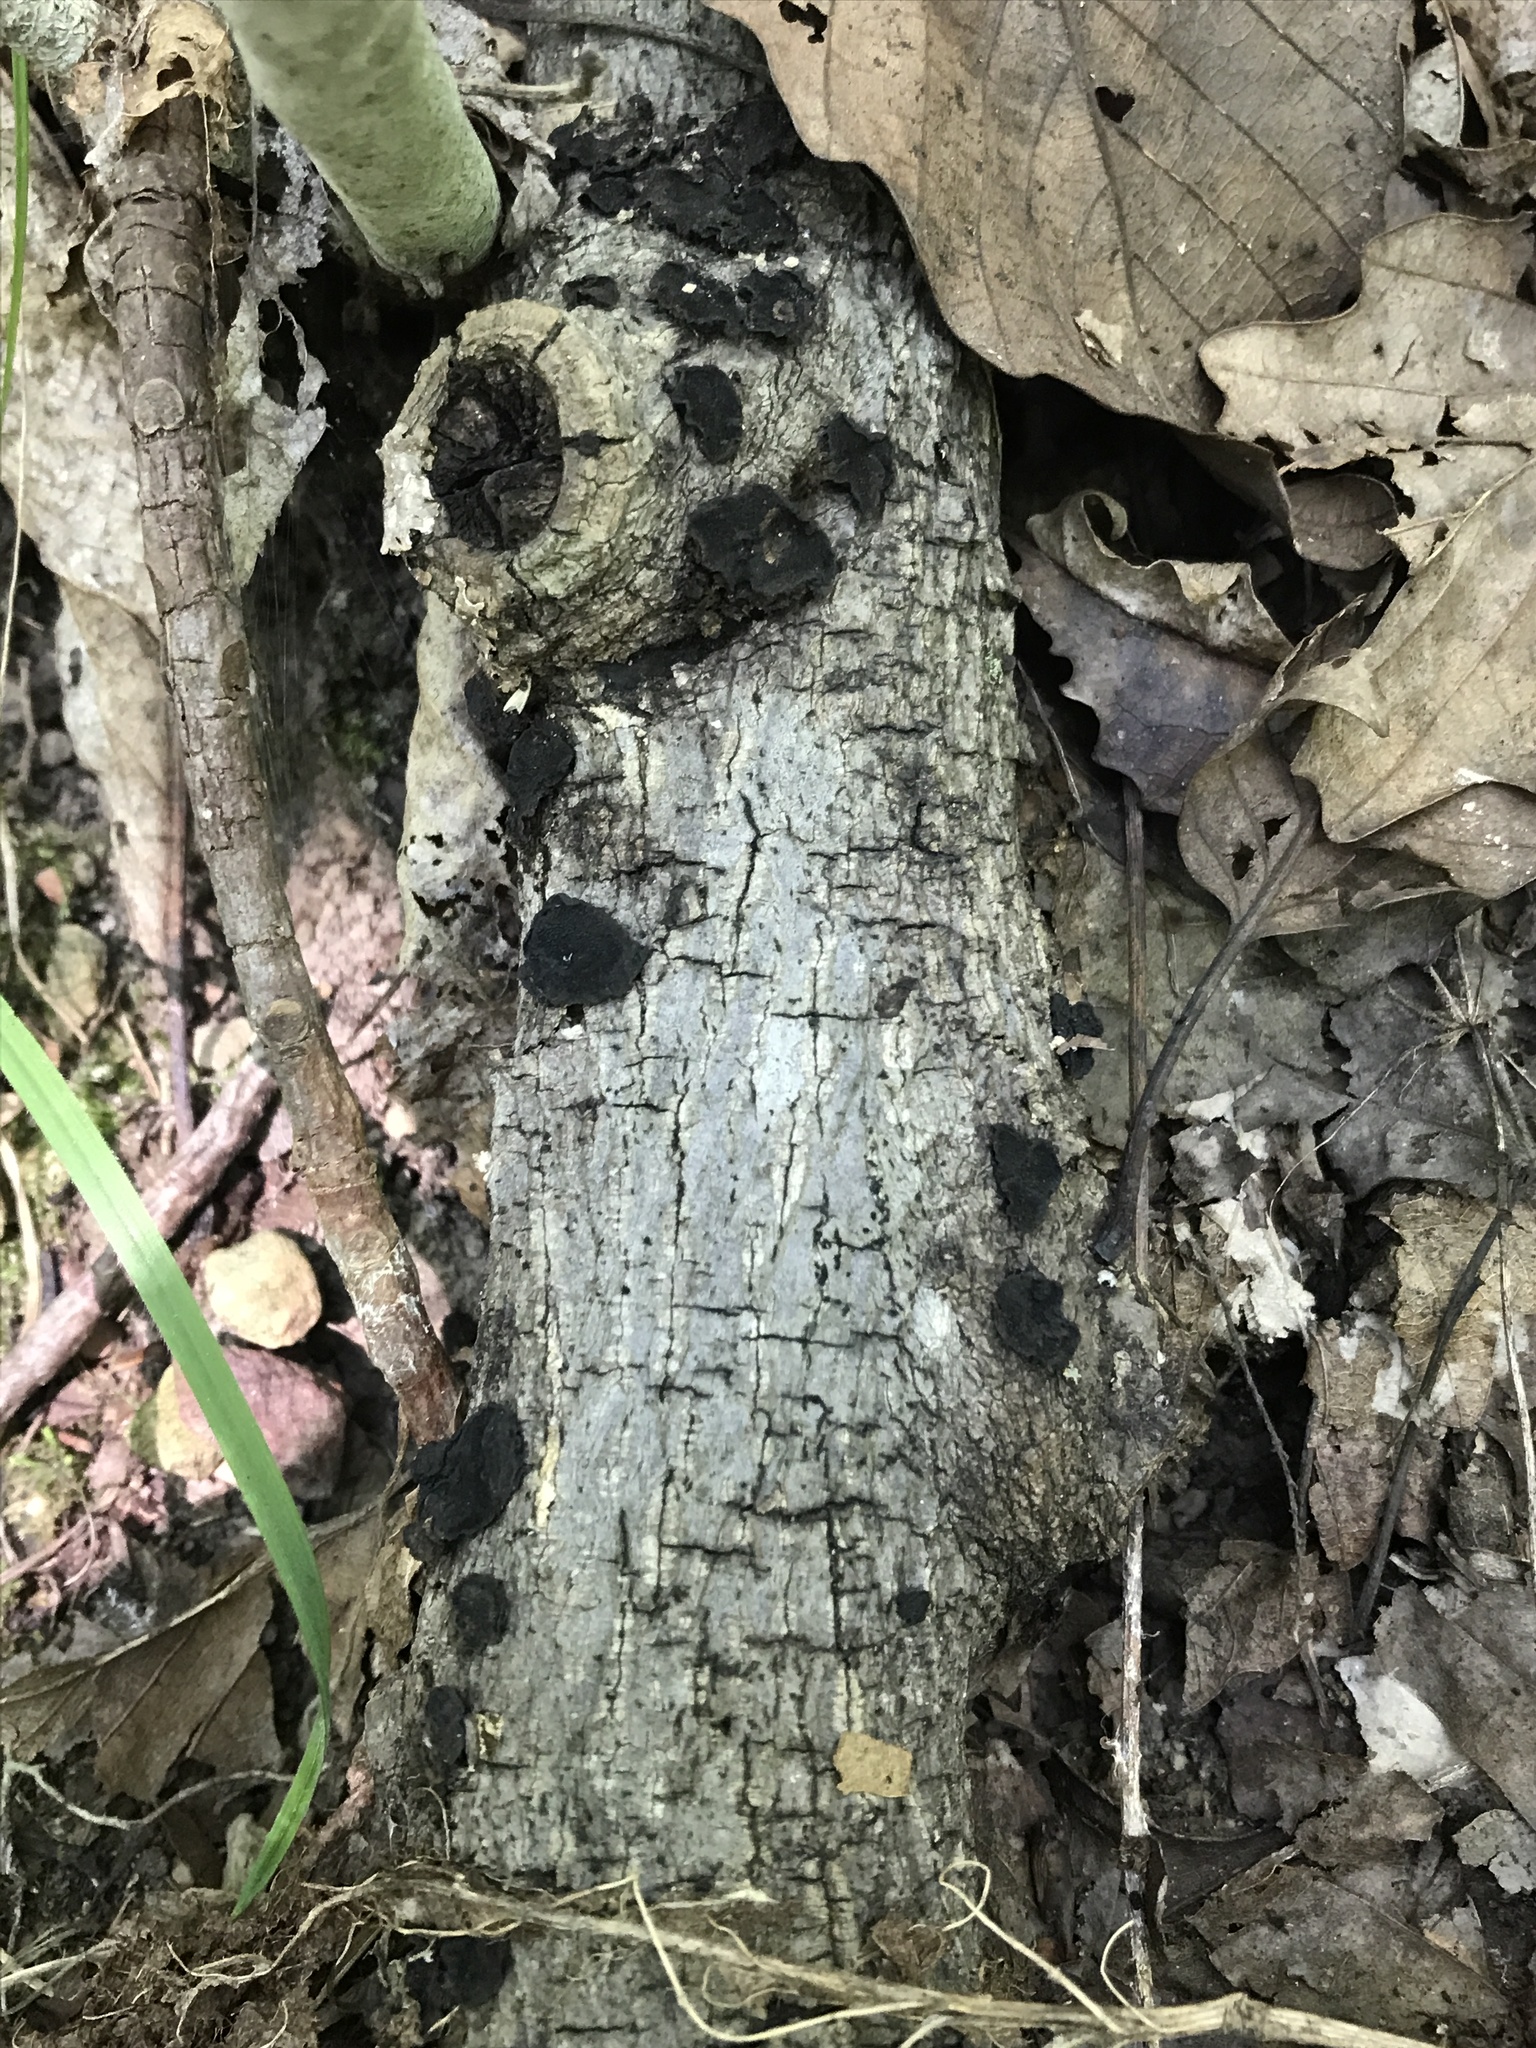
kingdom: Fungi
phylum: Basidiomycota
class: Agaricomycetes
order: Auriculariales
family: Auriculariaceae
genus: Exidia
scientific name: Exidia nigricans
